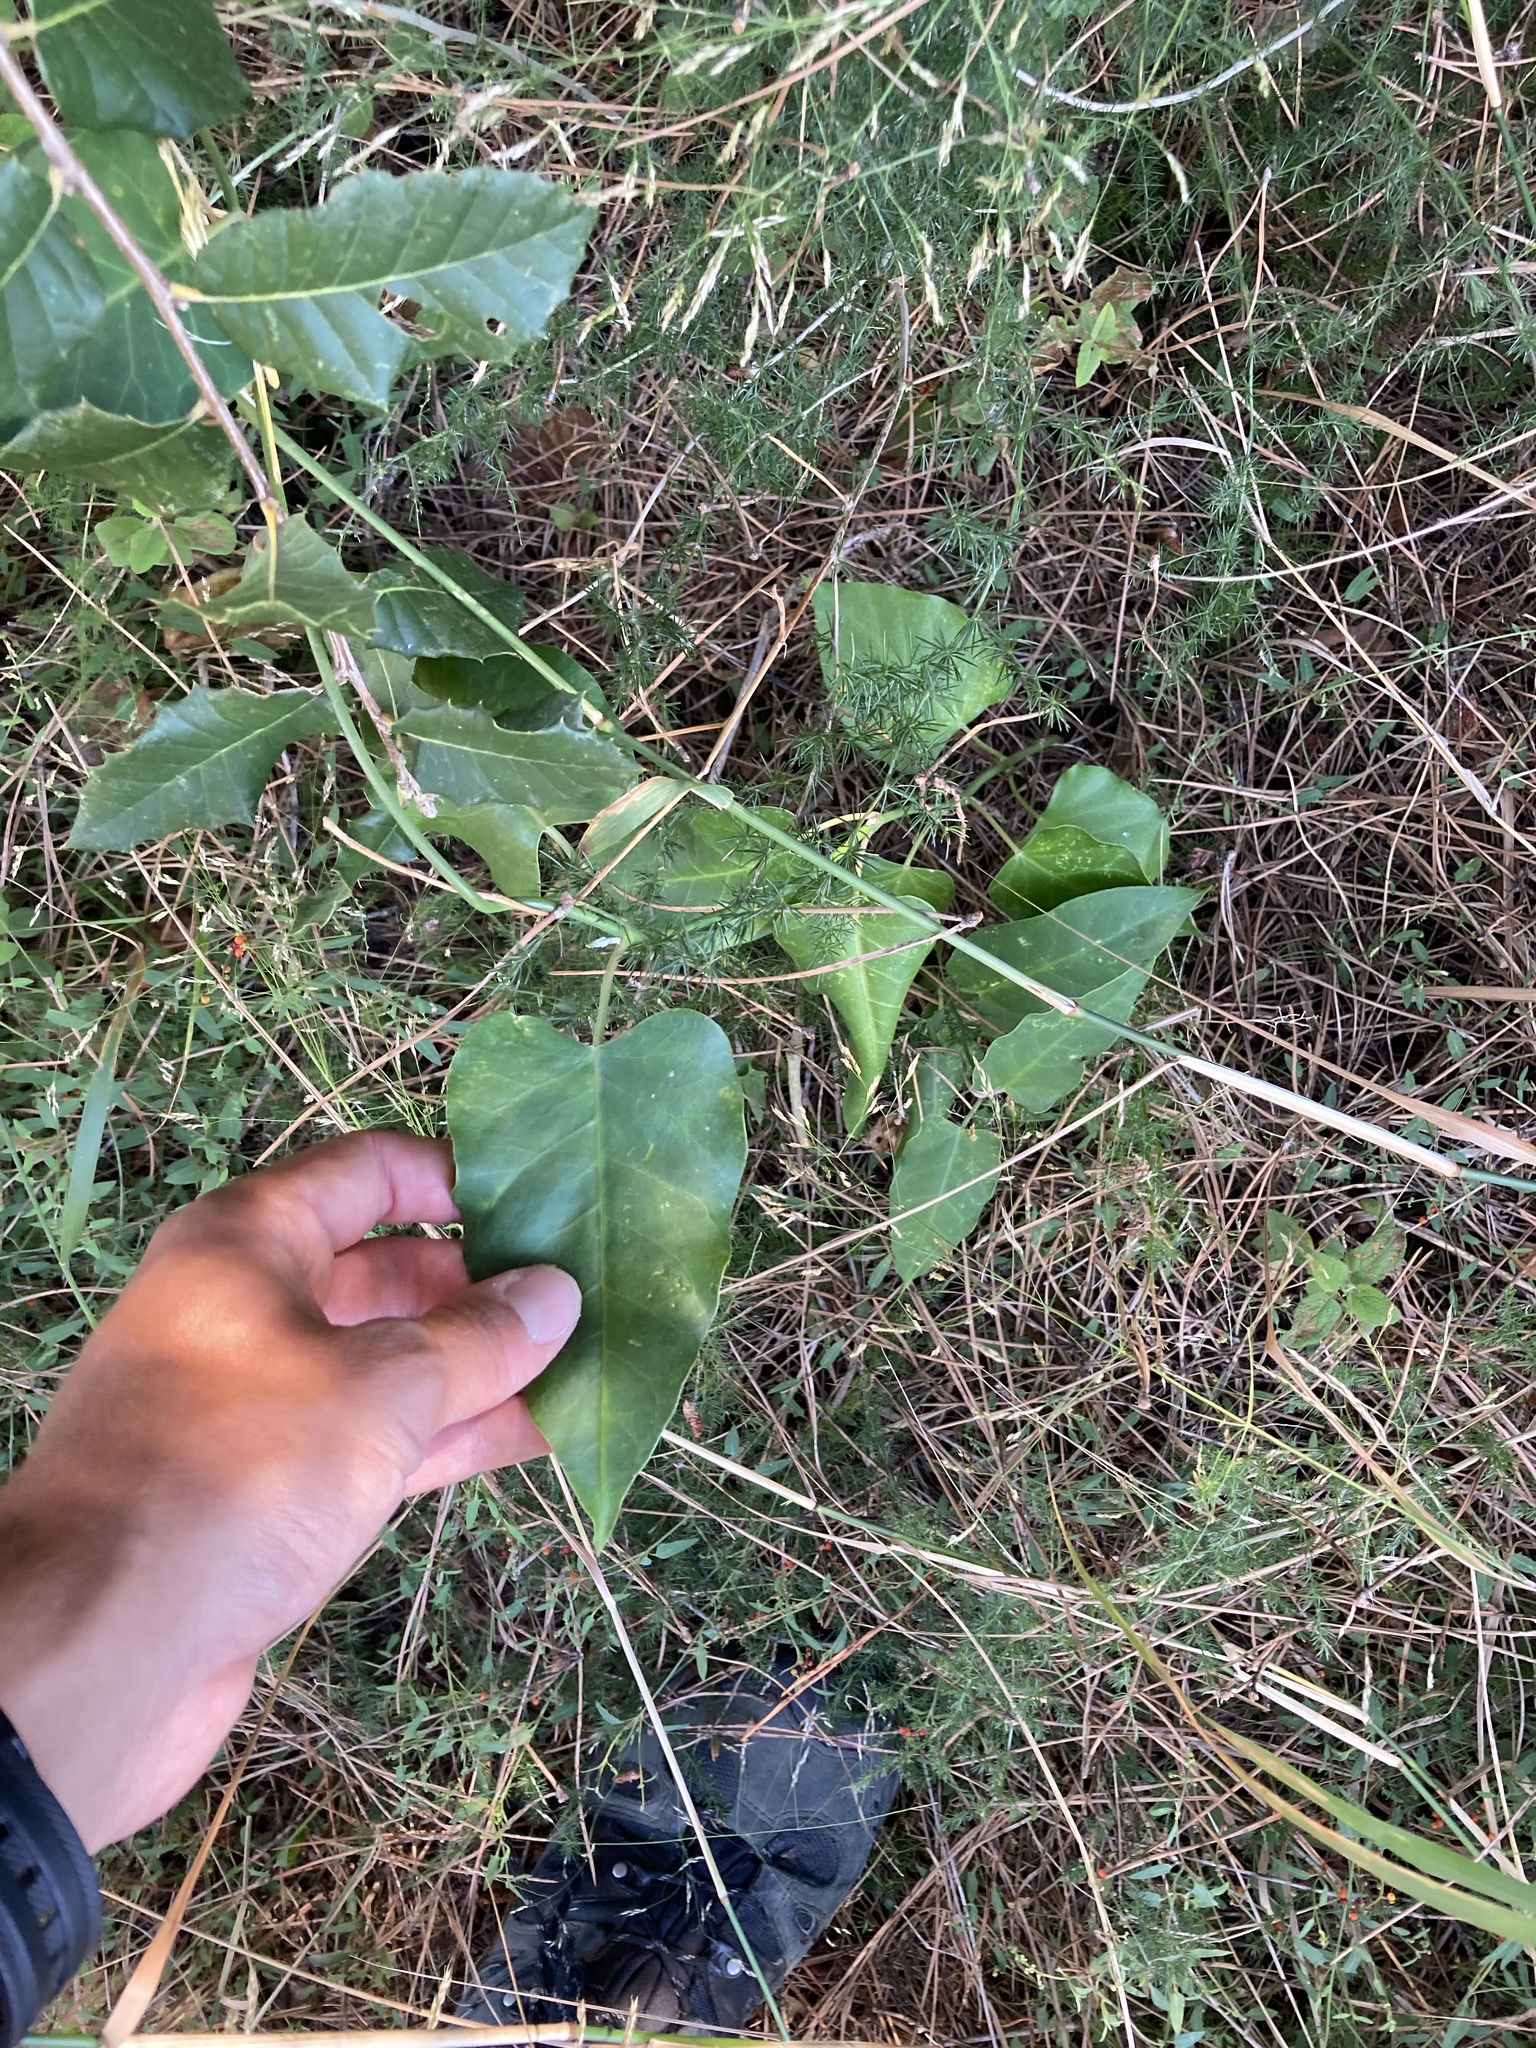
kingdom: Plantae
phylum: Tracheophyta
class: Magnoliopsida
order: Gentianales
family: Apocynaceae
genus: Araujia
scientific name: Araujia sericifera
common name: White bladderflower
